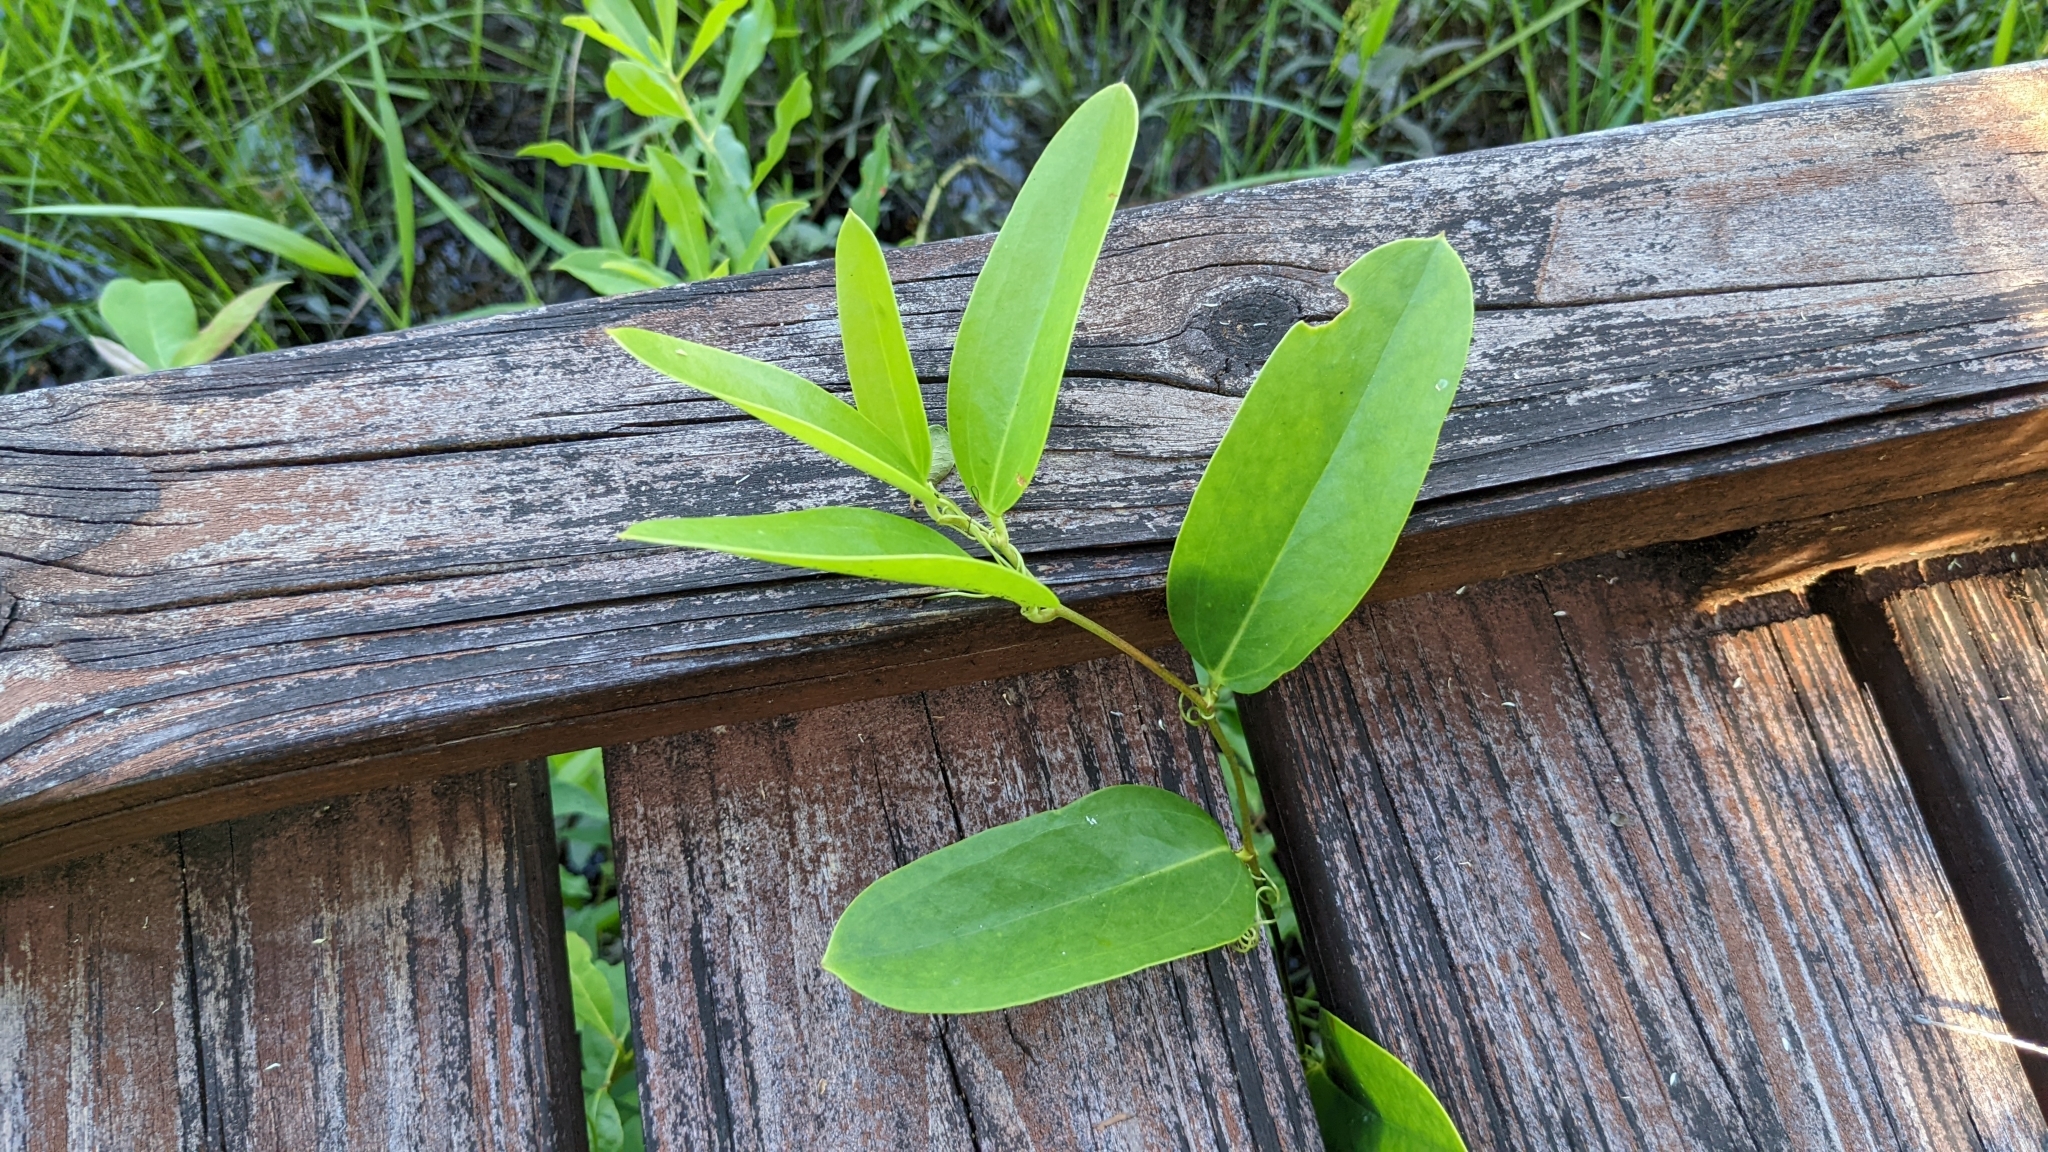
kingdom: Plantae
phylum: Tracheophyta
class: Liliopsida
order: Liliales
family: Smilacaceae
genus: Smilax
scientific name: Smilax laurifolia
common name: Bamboovine
